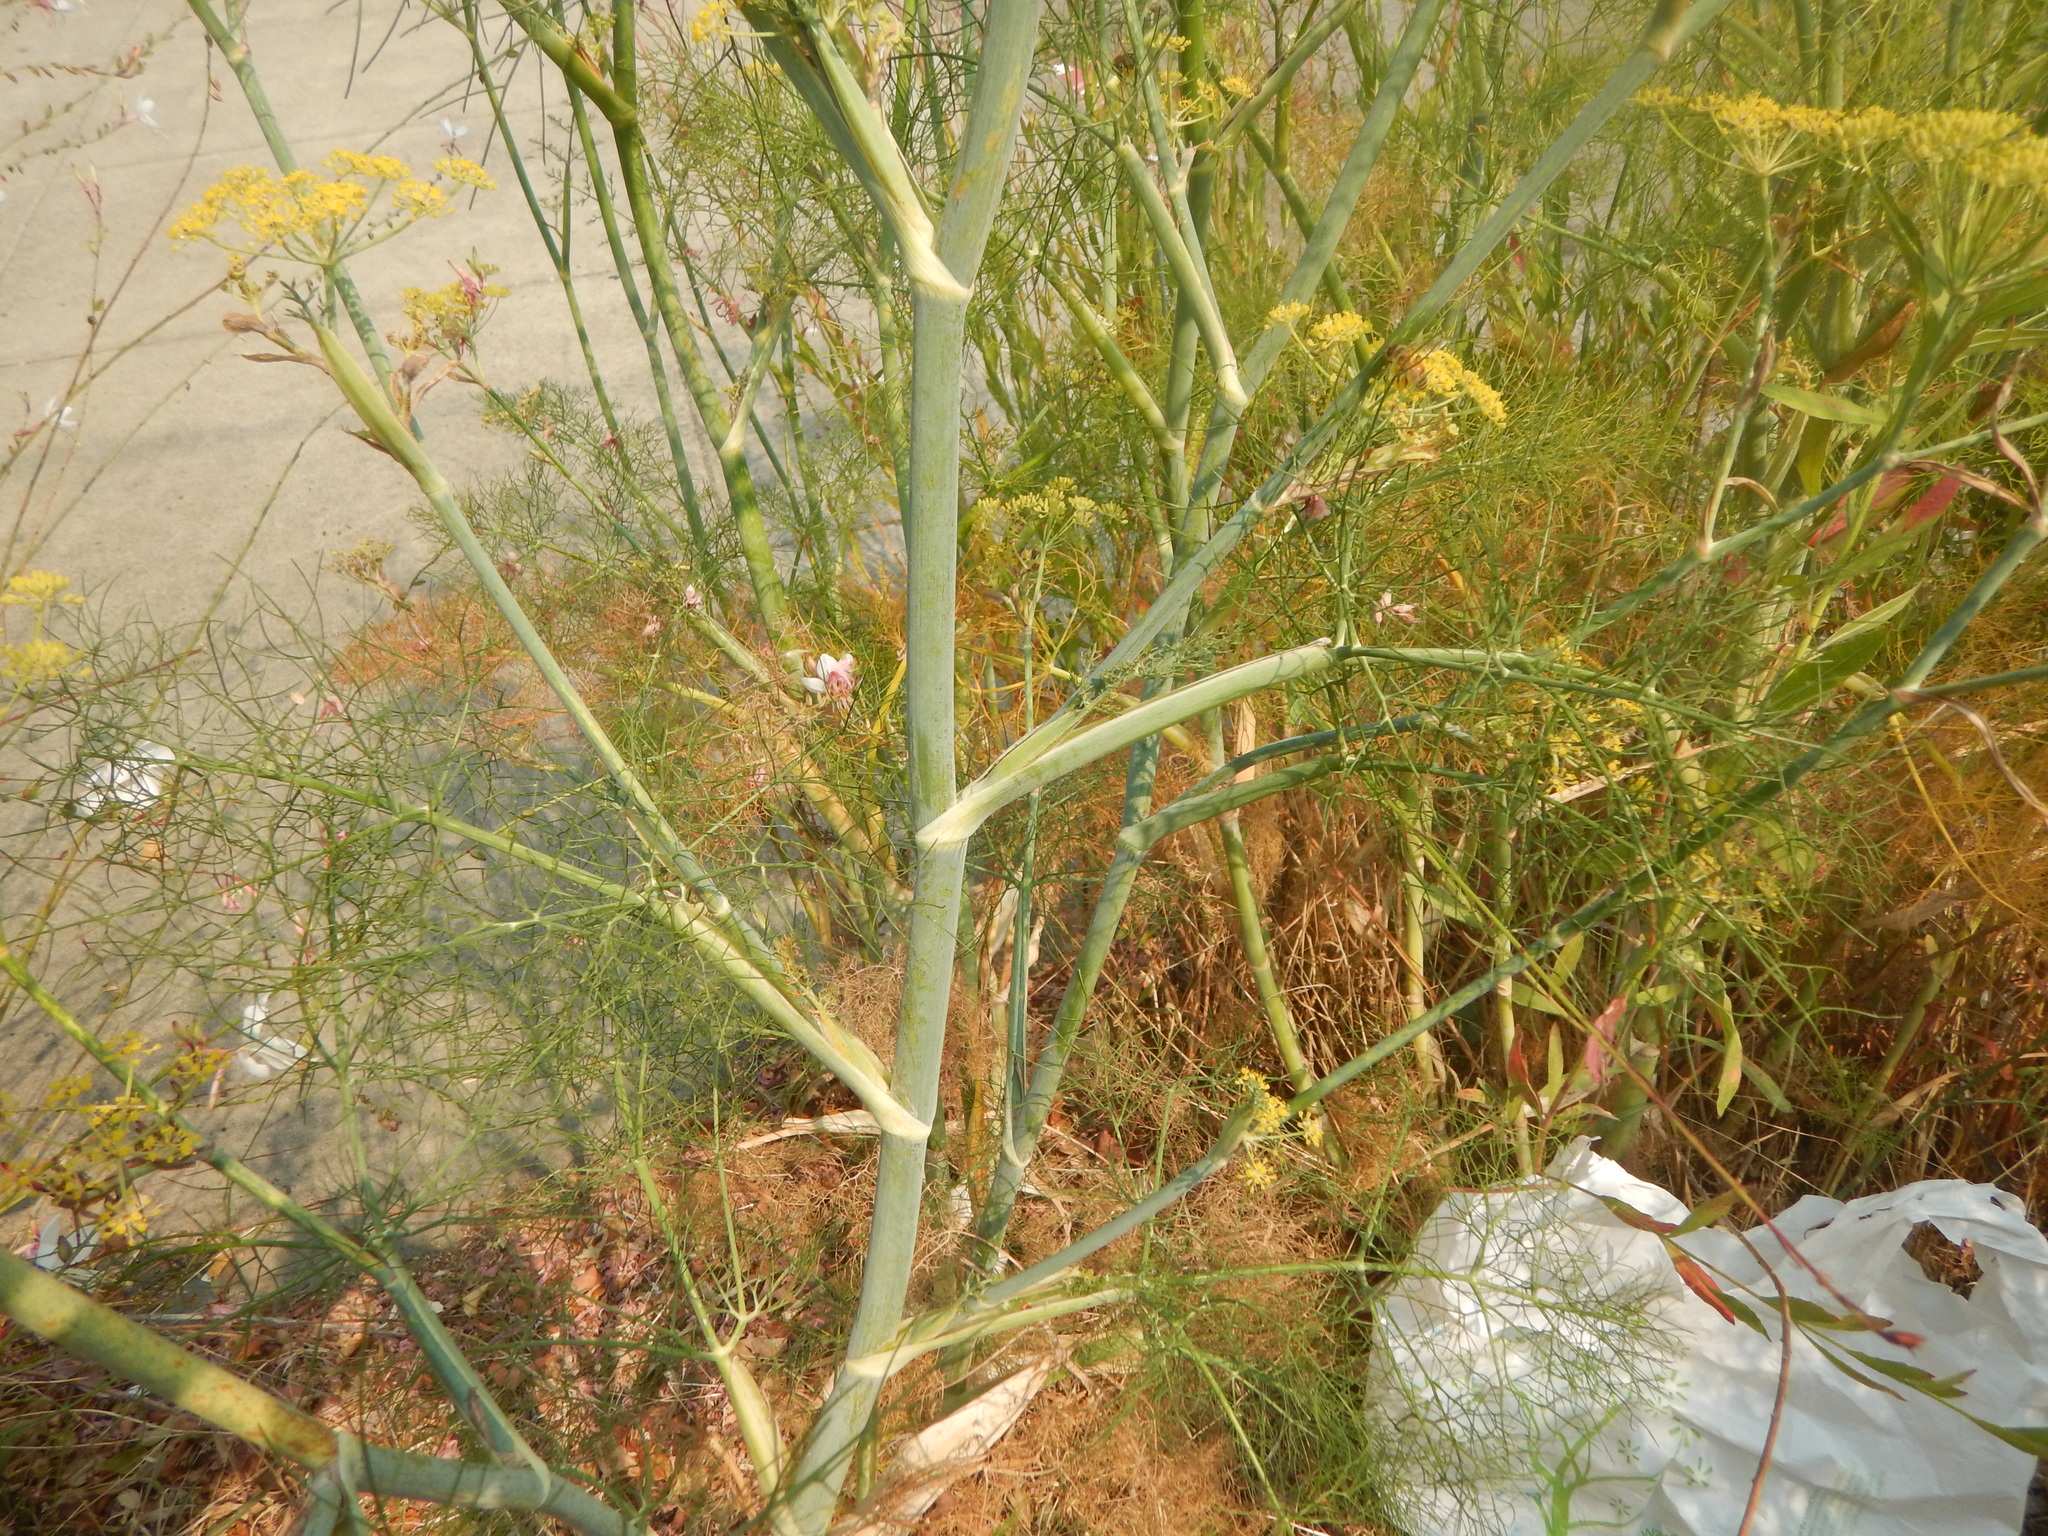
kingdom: Plantae
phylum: Tracheophyta
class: Magnoliopsida
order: Apiales
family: Apiaceae
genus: Foeniculum
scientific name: Foeniculum vulgare
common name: Fennel
